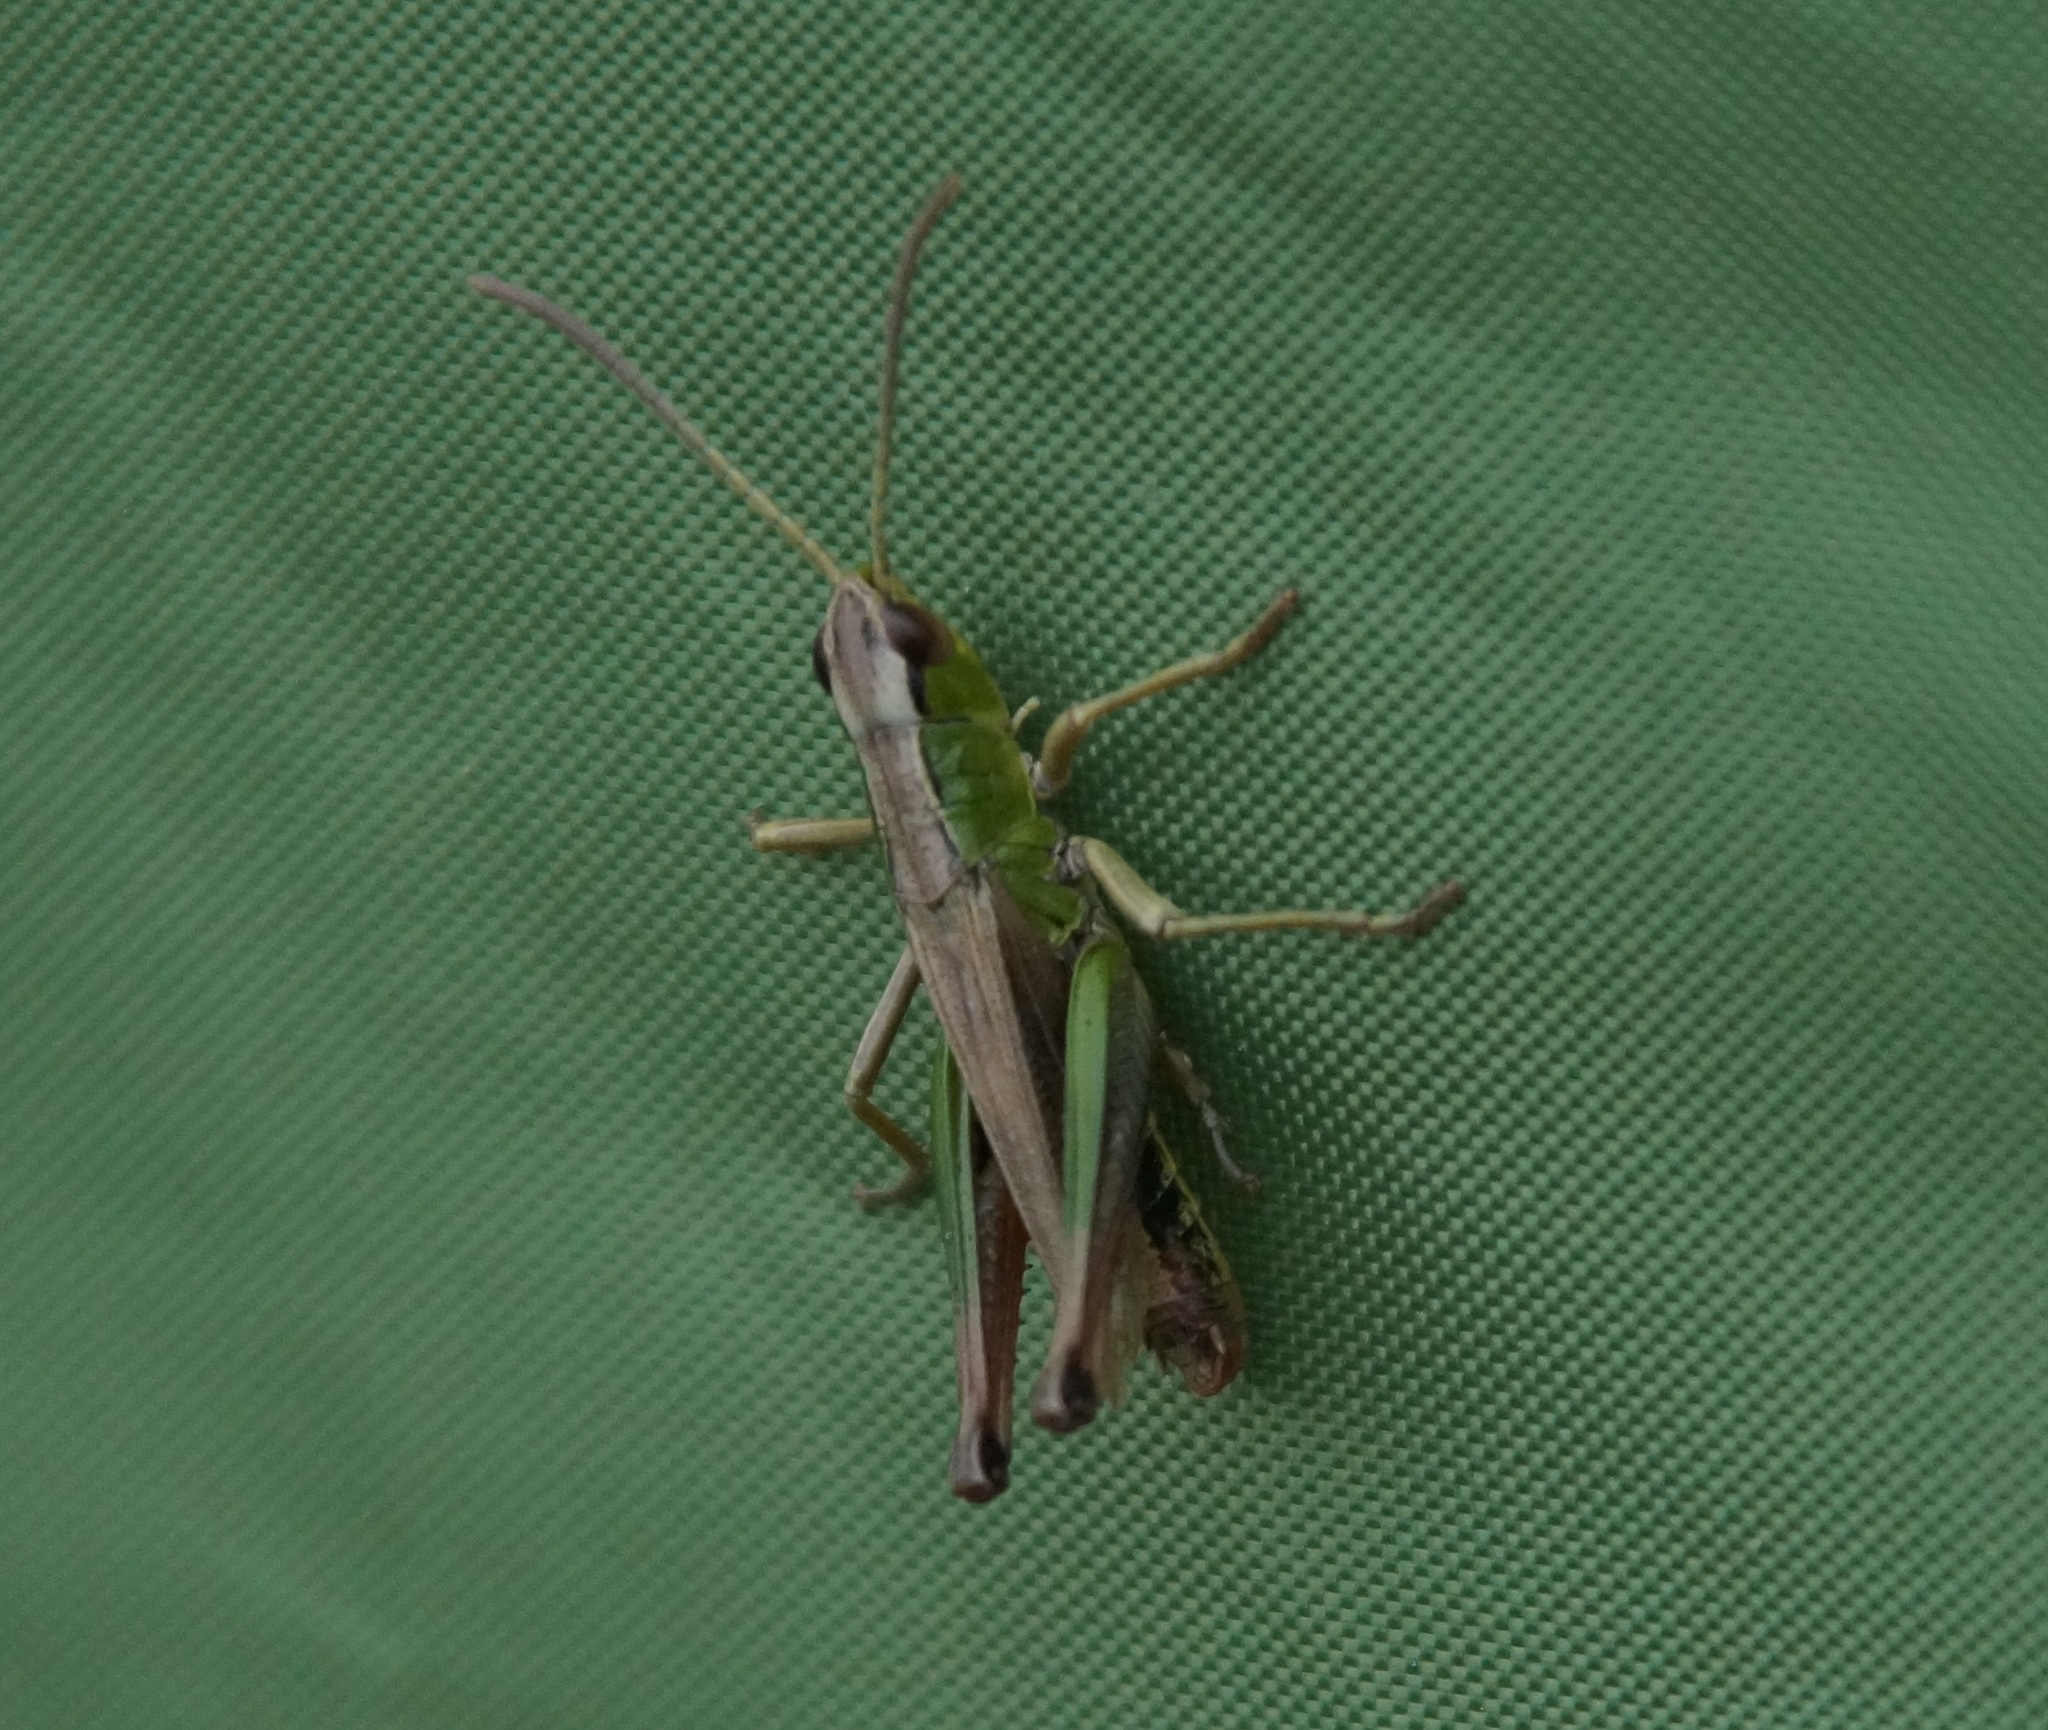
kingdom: Animalia
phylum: Arthropoda
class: Insecta
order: Orthoptera
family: Acrididae
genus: Pseudochorthippus
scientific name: Pseudochorthippus parallelus
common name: Meadow grasshopper
